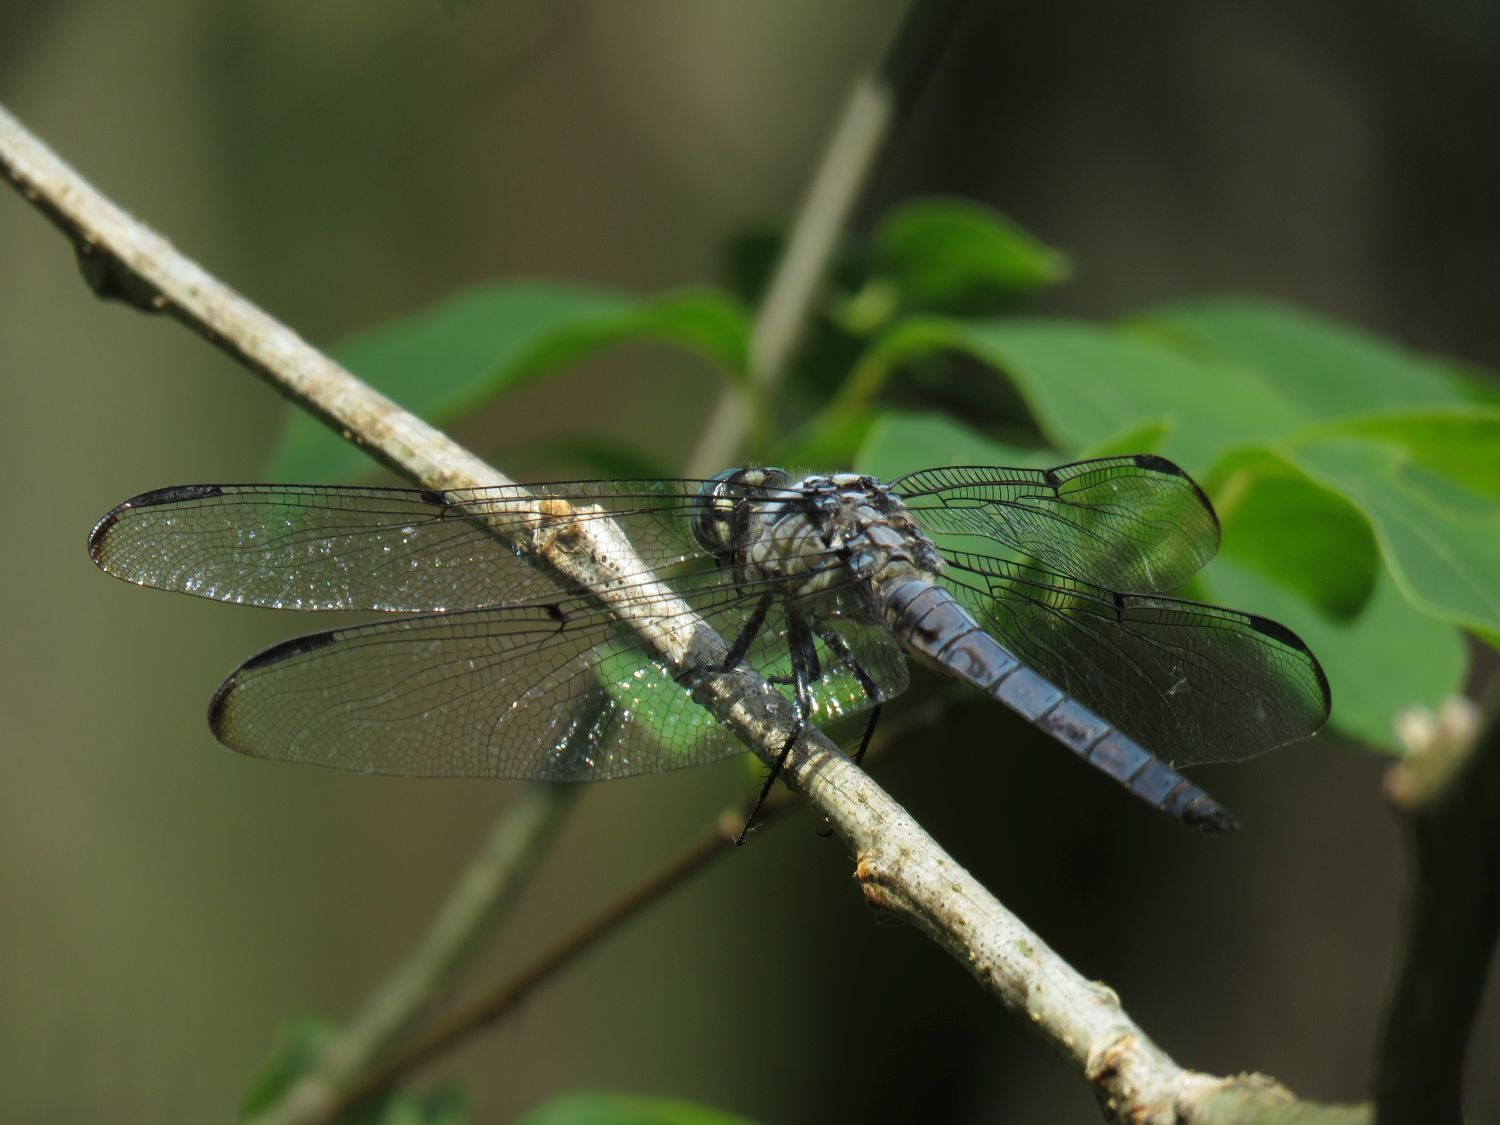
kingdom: Animalia
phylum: Arthropoda
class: Insecta
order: Odonata
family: Libellulidae
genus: Libellula
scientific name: Libellula vibrans
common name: Great blue skimmer
